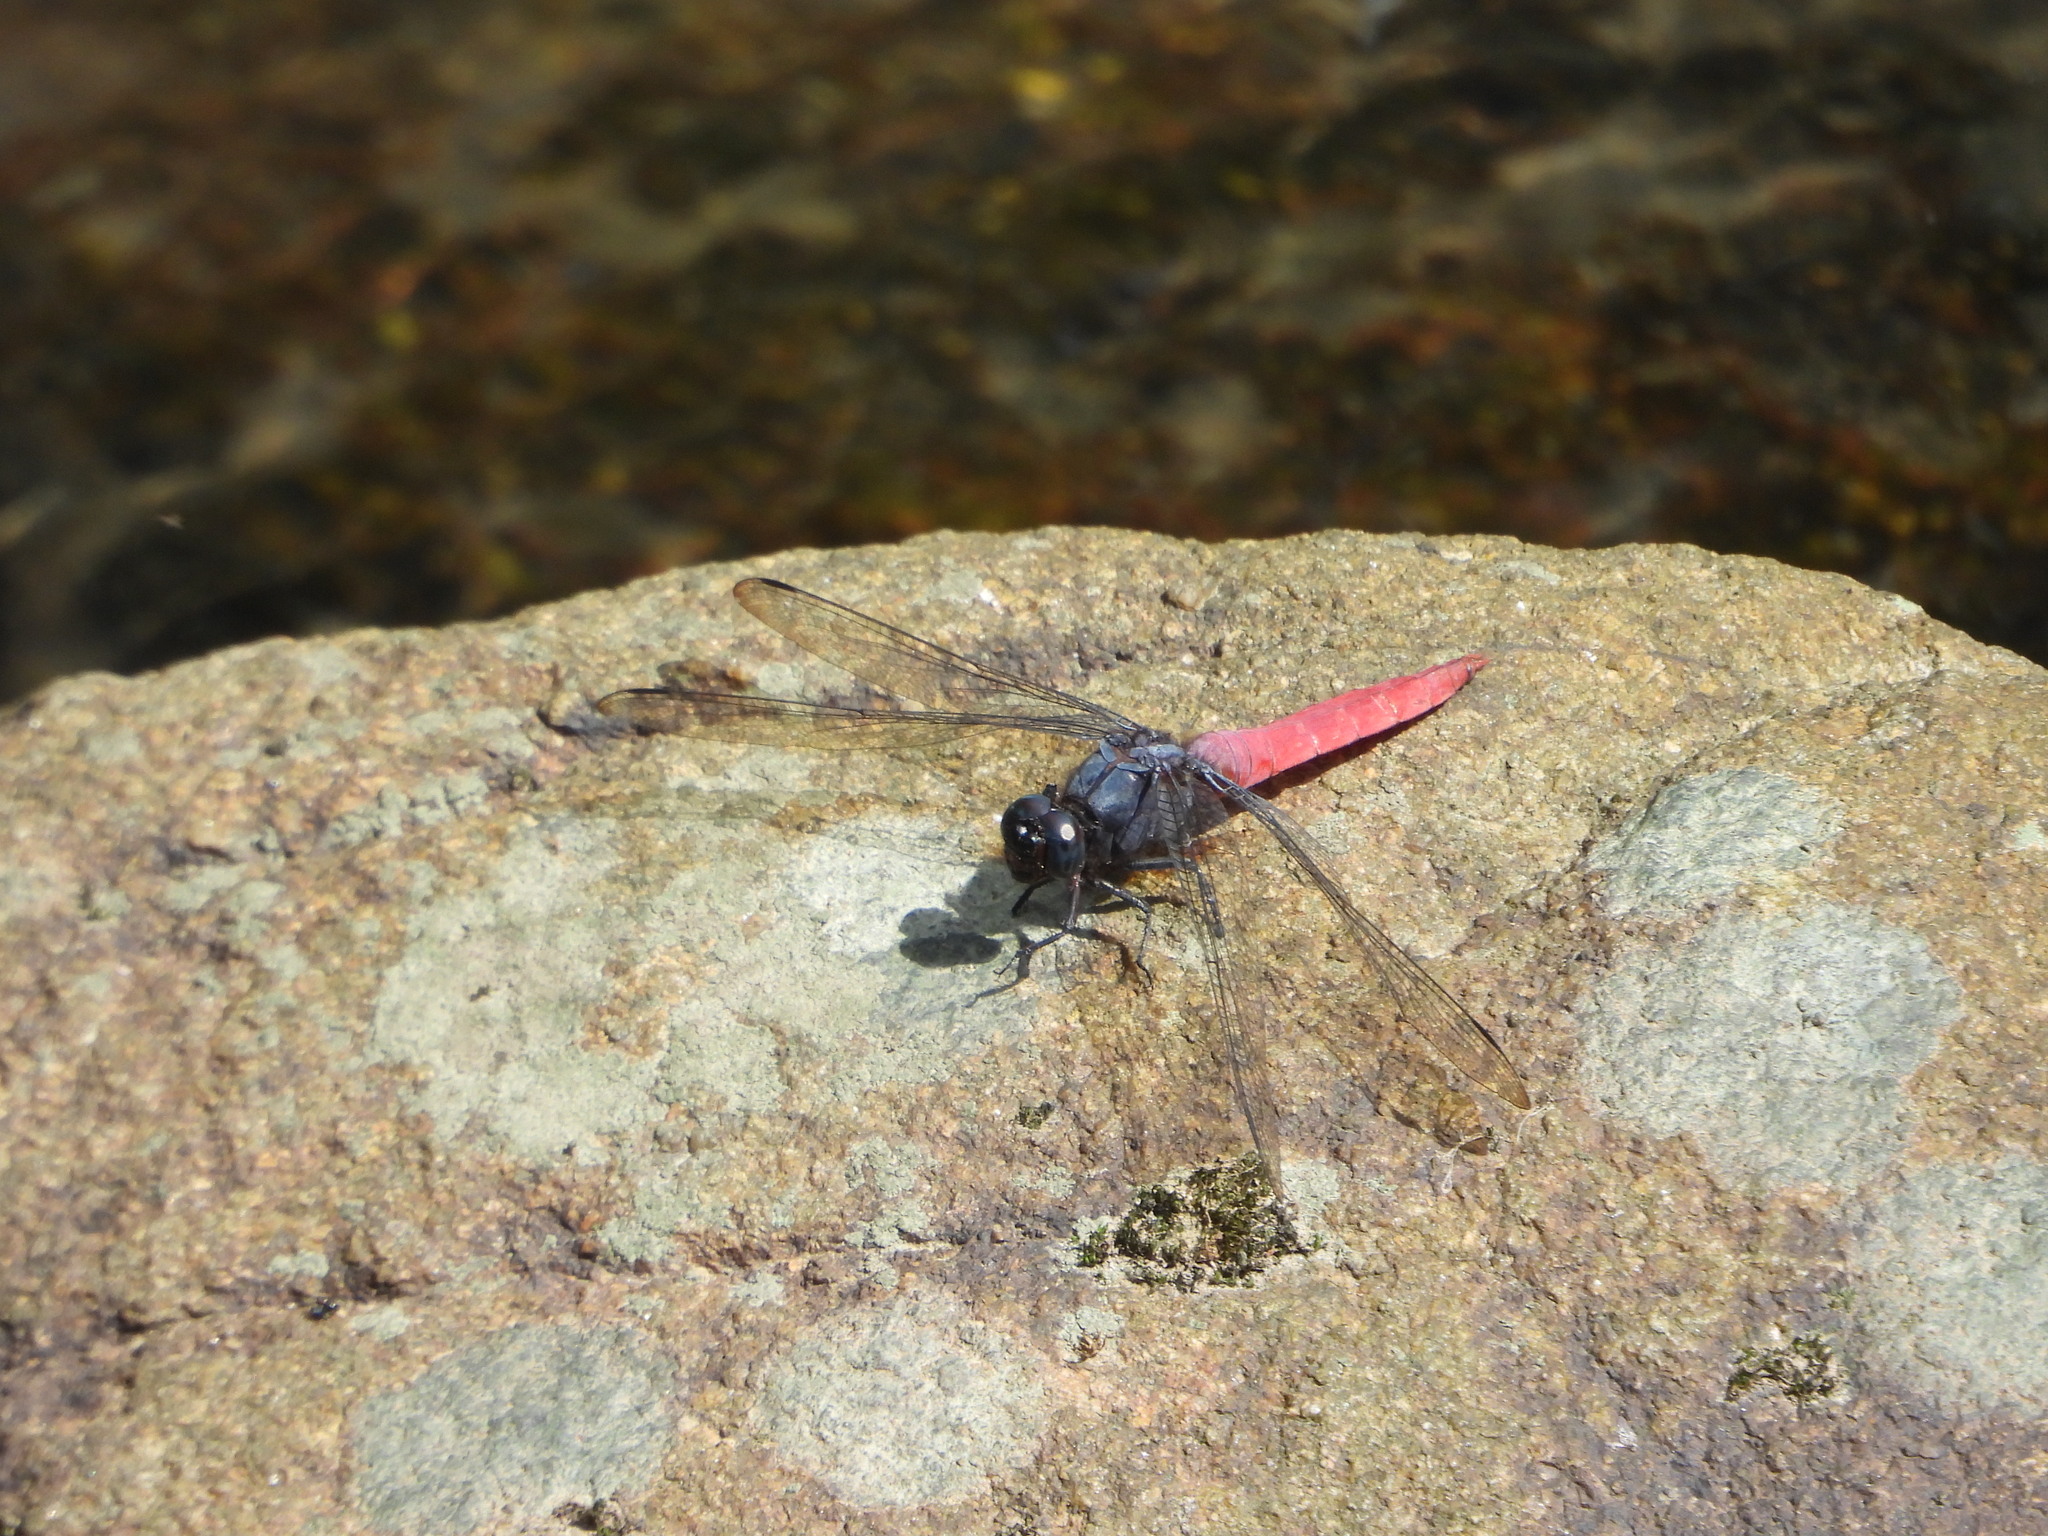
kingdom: Animalia
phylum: Arthropoda
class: Insecta
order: Odonata
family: Libellulidae
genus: Orthetrum
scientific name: Orthetrum pruinosum
